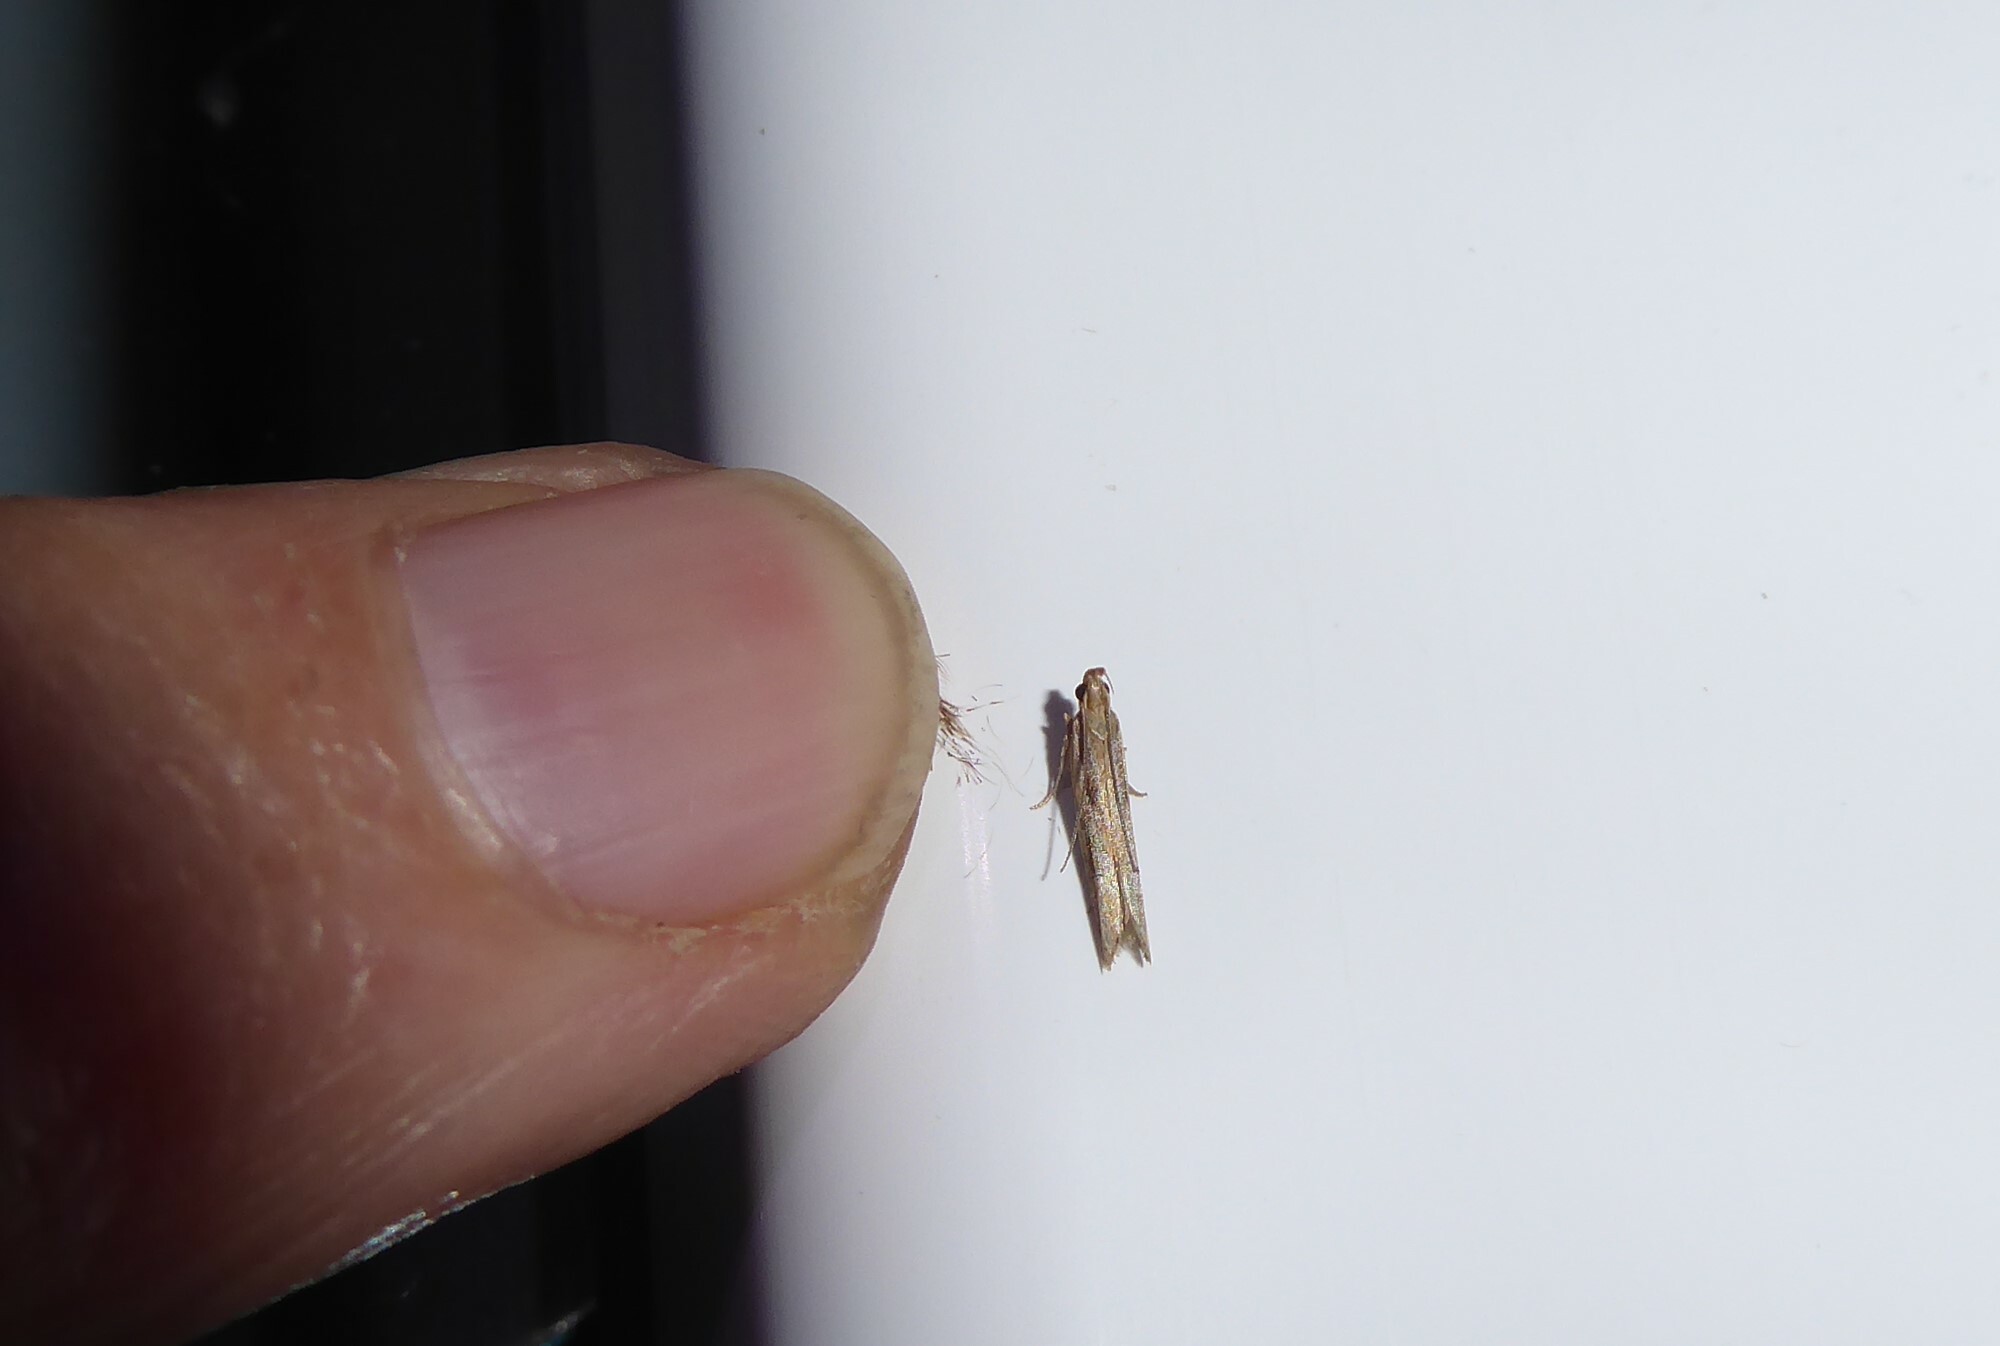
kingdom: Animalia
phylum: Arthropoda
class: Insecta
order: Lepidoptera
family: Depressariidae
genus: Eutorna
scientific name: Eutorna symmorpha
